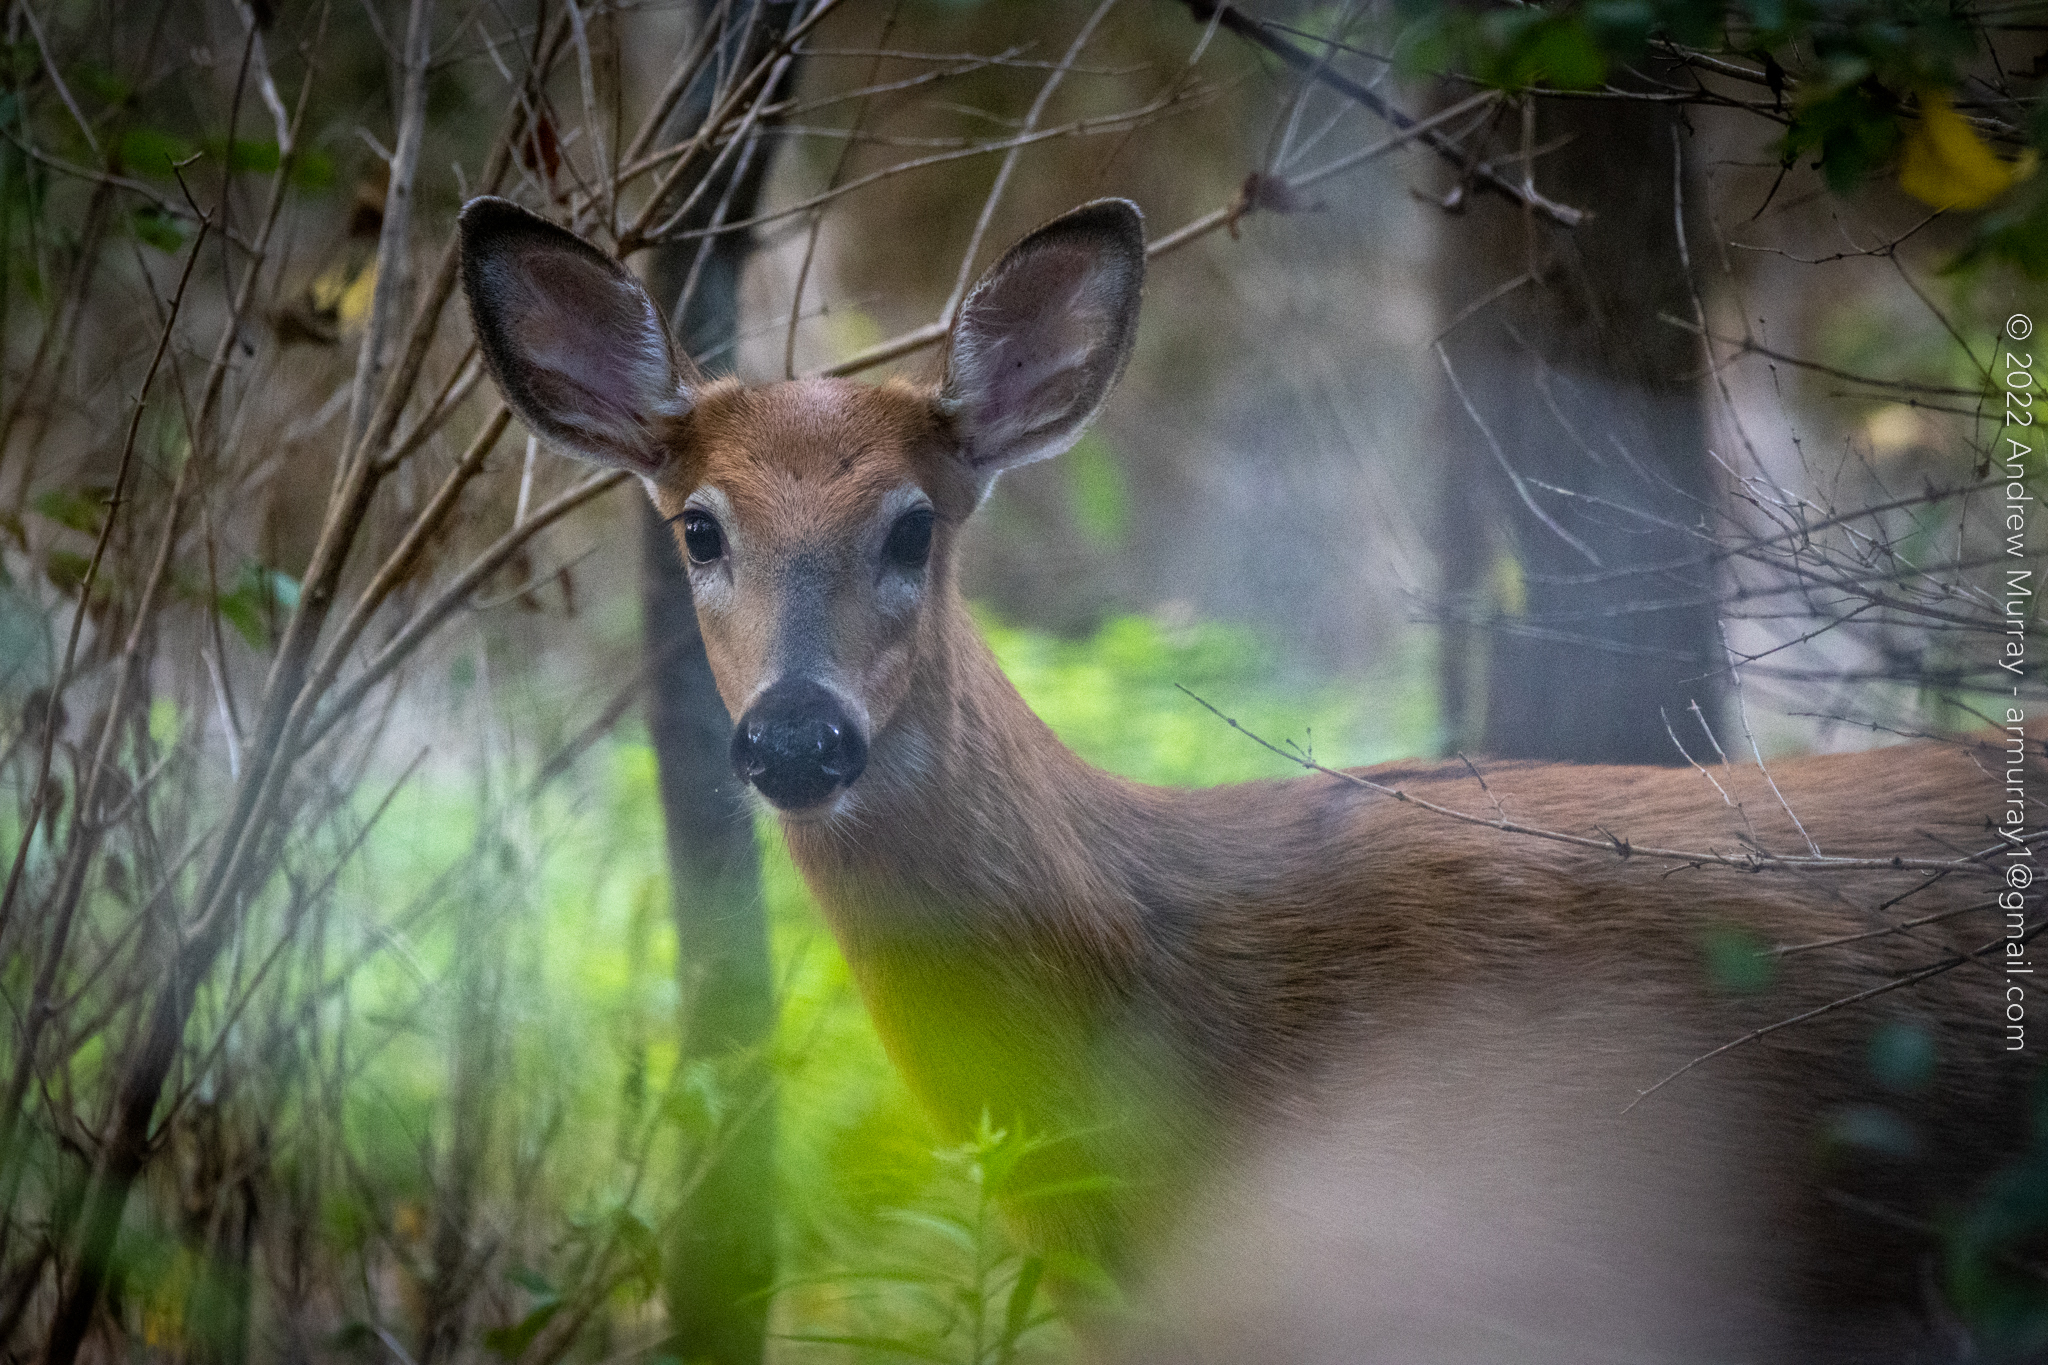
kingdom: Animalia
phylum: Chordata
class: Mammalia
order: Artiodactyla
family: Cervidae
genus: Odocoileus
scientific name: Odocoileus virginianus
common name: White-tailed deer
